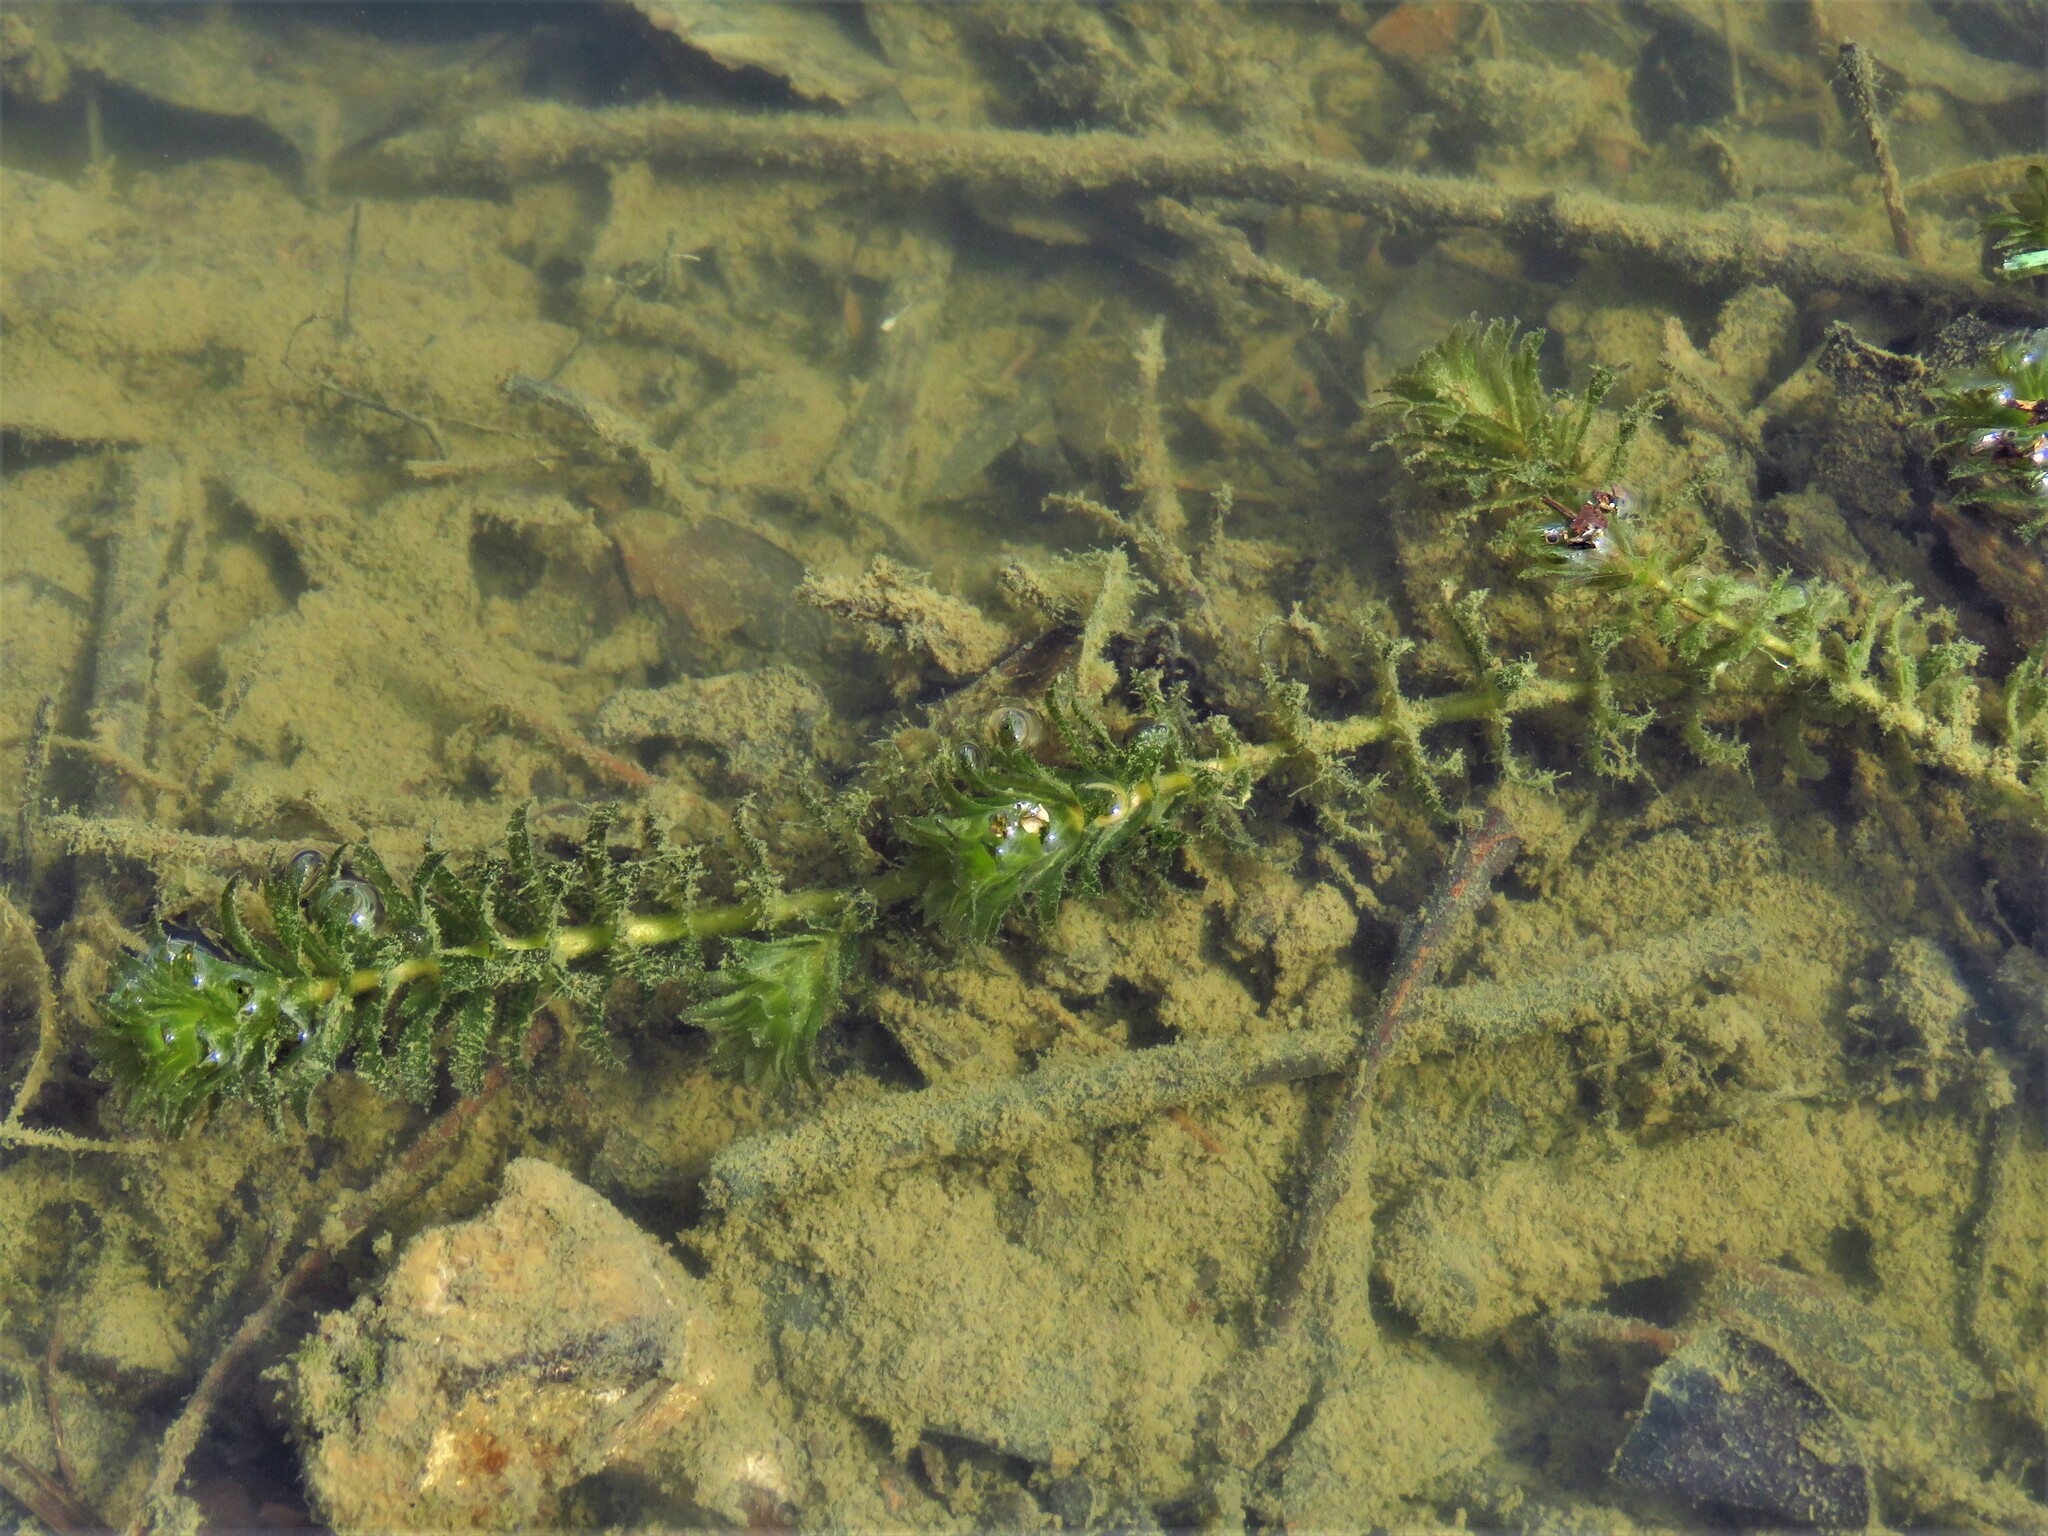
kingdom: Plantae
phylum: Tracheophyta
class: Liliopsida
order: Alismatales
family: Hydrocharitaceae
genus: Hydrilla
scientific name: Hydrilla verticillata
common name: Florida-elodea
